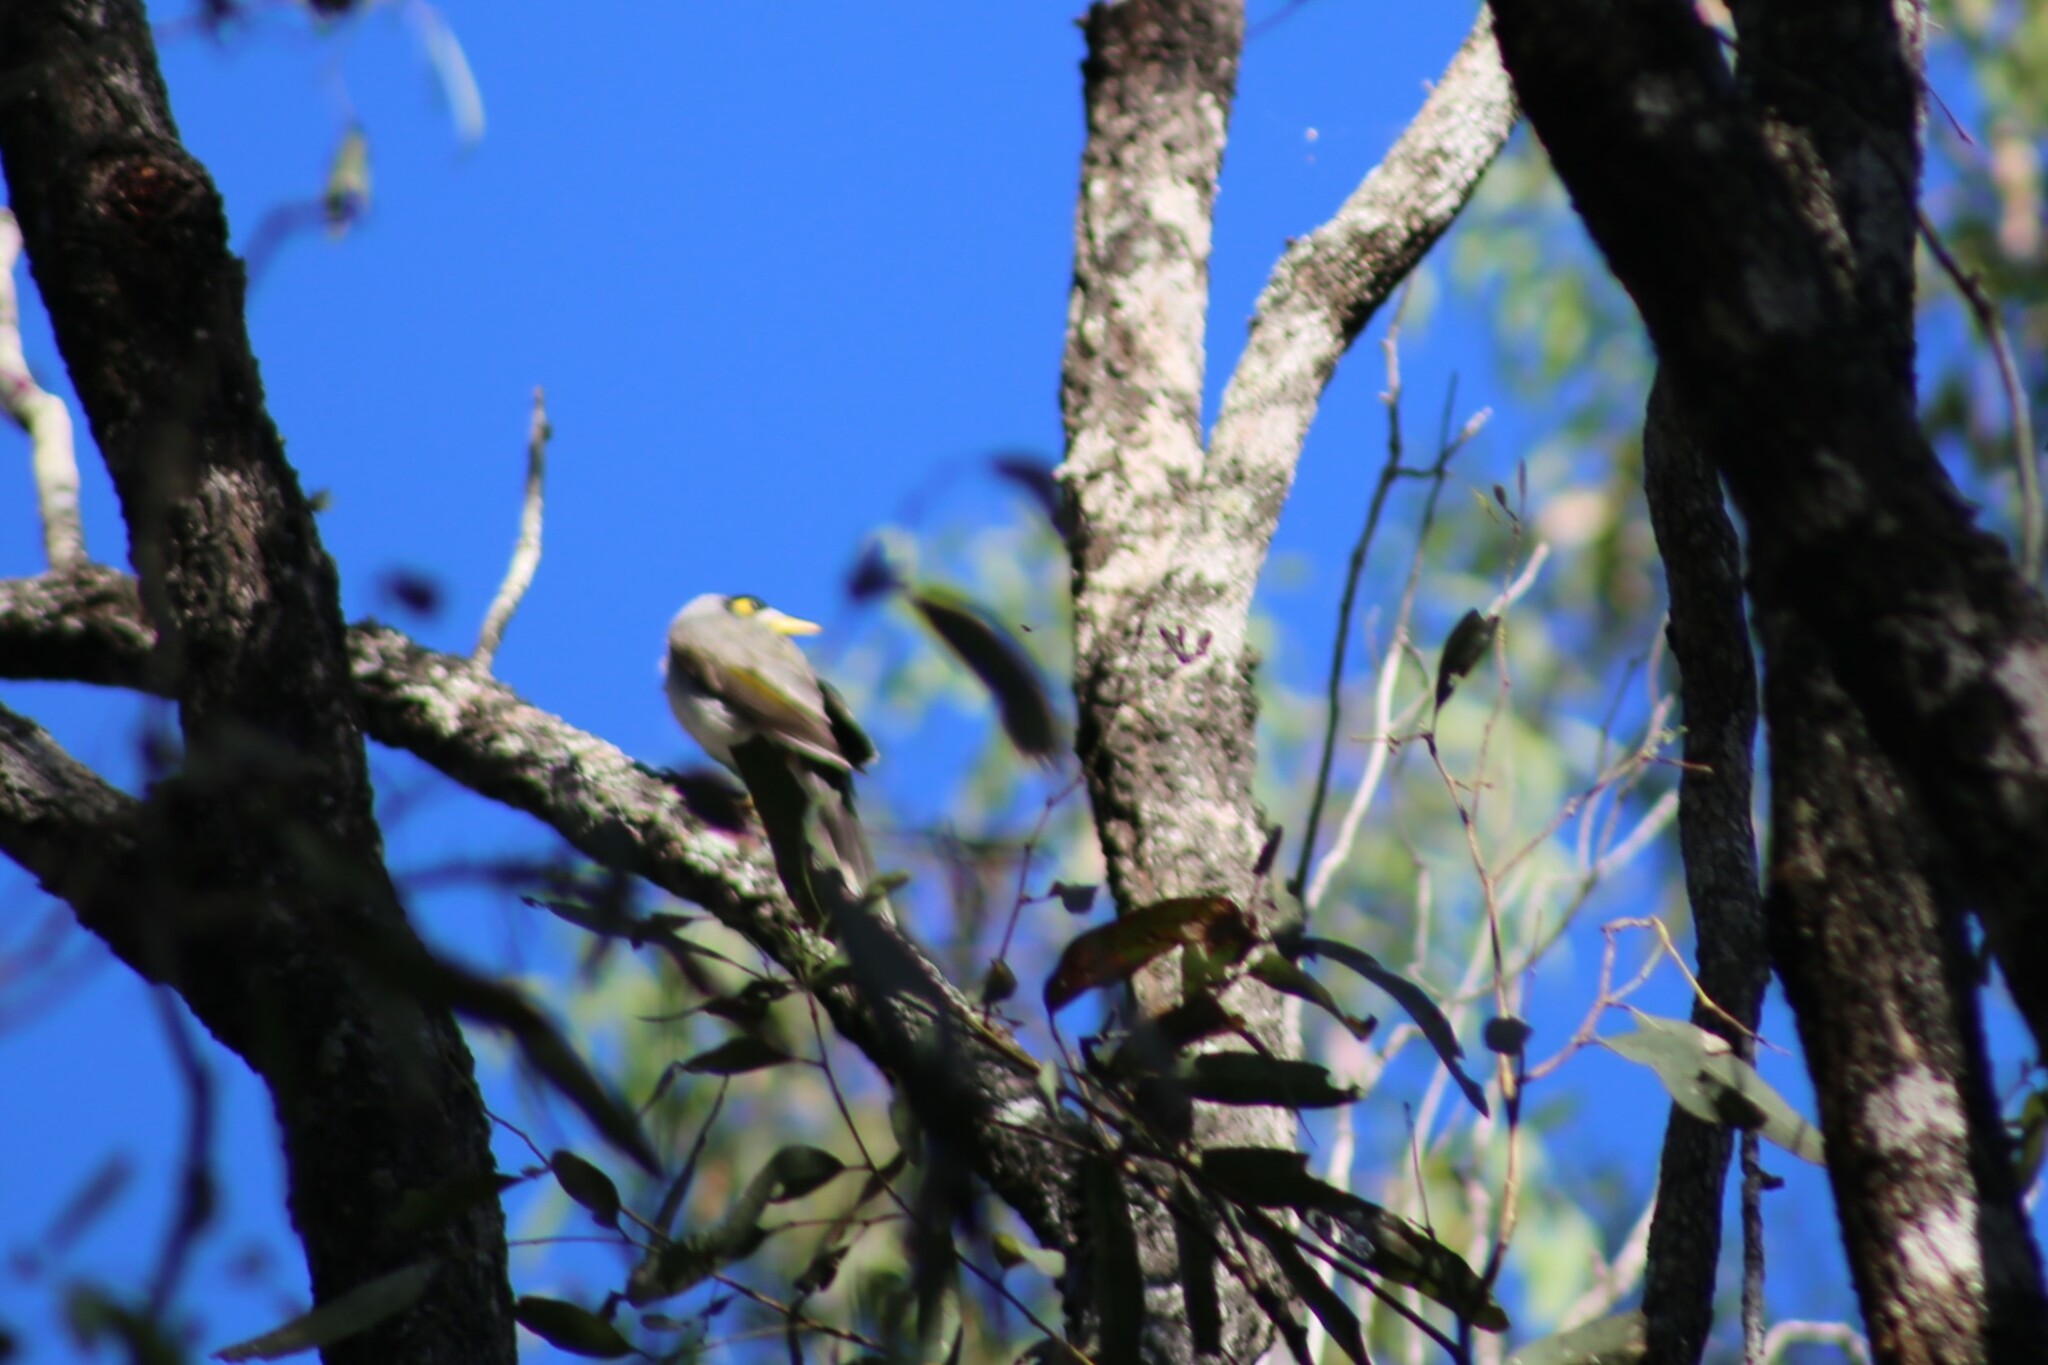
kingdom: Animalia
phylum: Chordata
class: Aves
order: Passeriformes
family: Meliphagidae
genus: Manorina
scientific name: Manorina melanocephala
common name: Noisy miner
